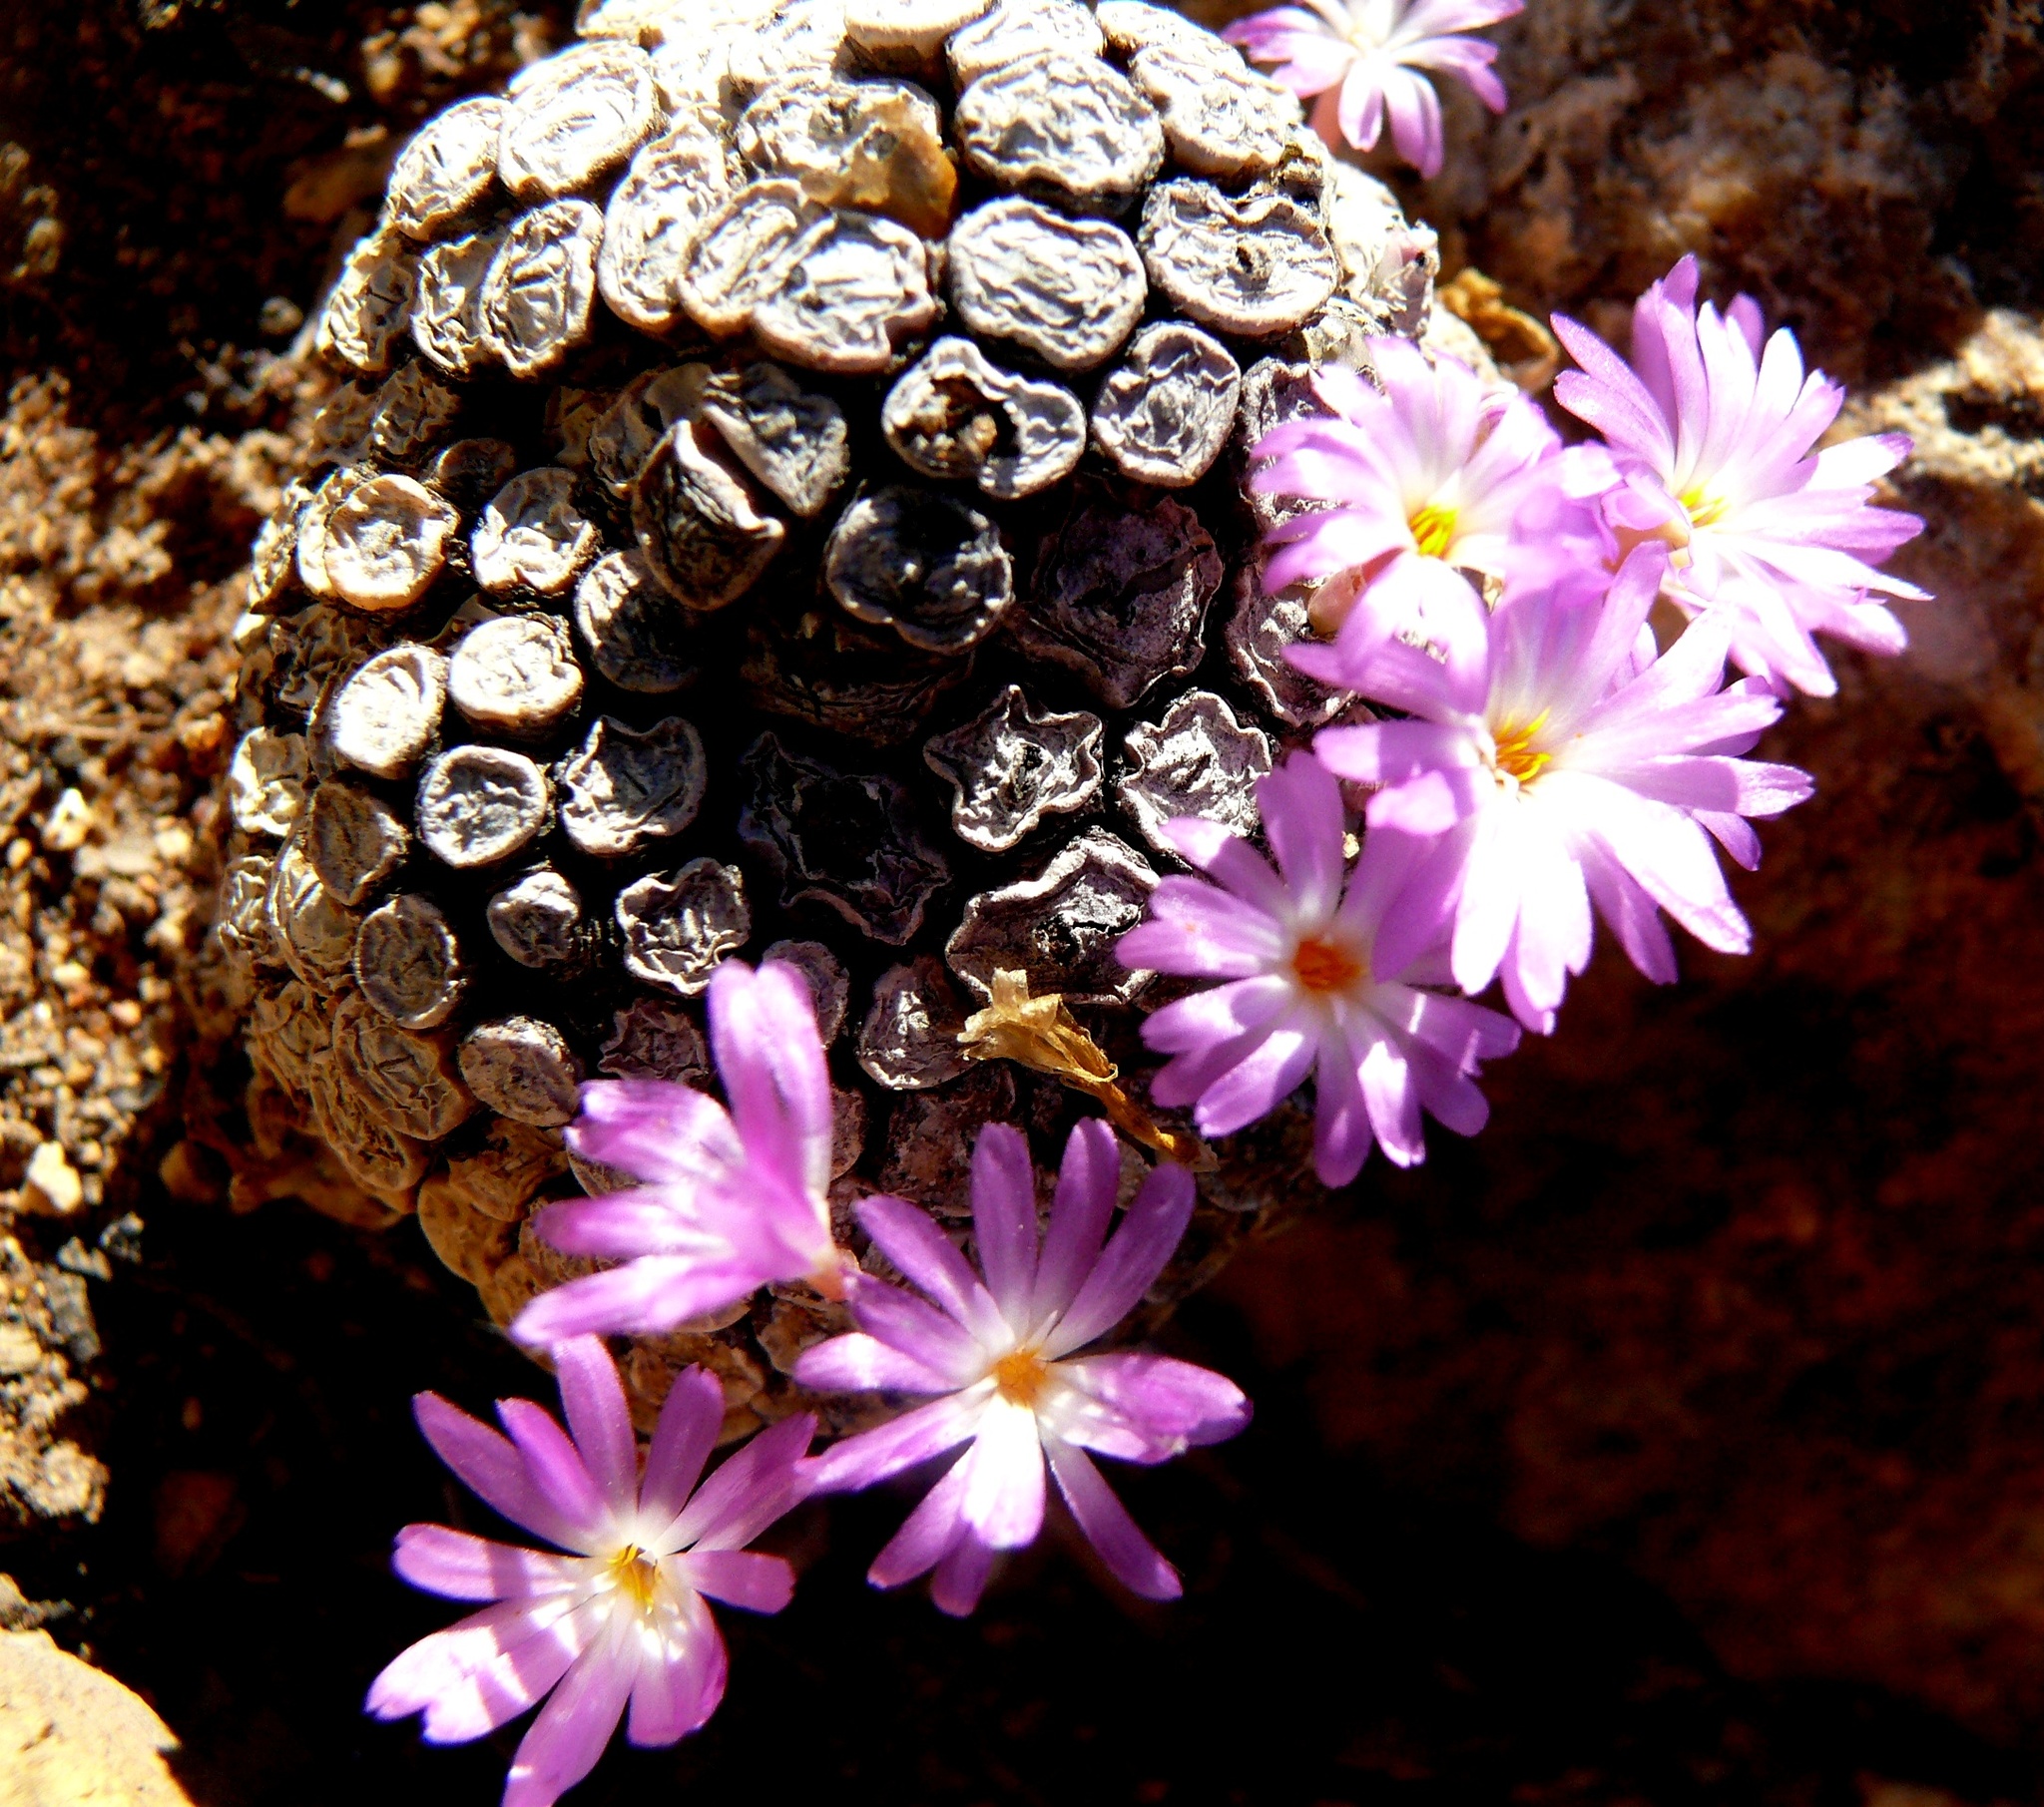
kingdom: Plantae
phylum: Tracheophyta
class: Magnoliopsida
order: Caryophyllales
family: Aizoaceae
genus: Conophytum
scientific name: Conophytum minutum
